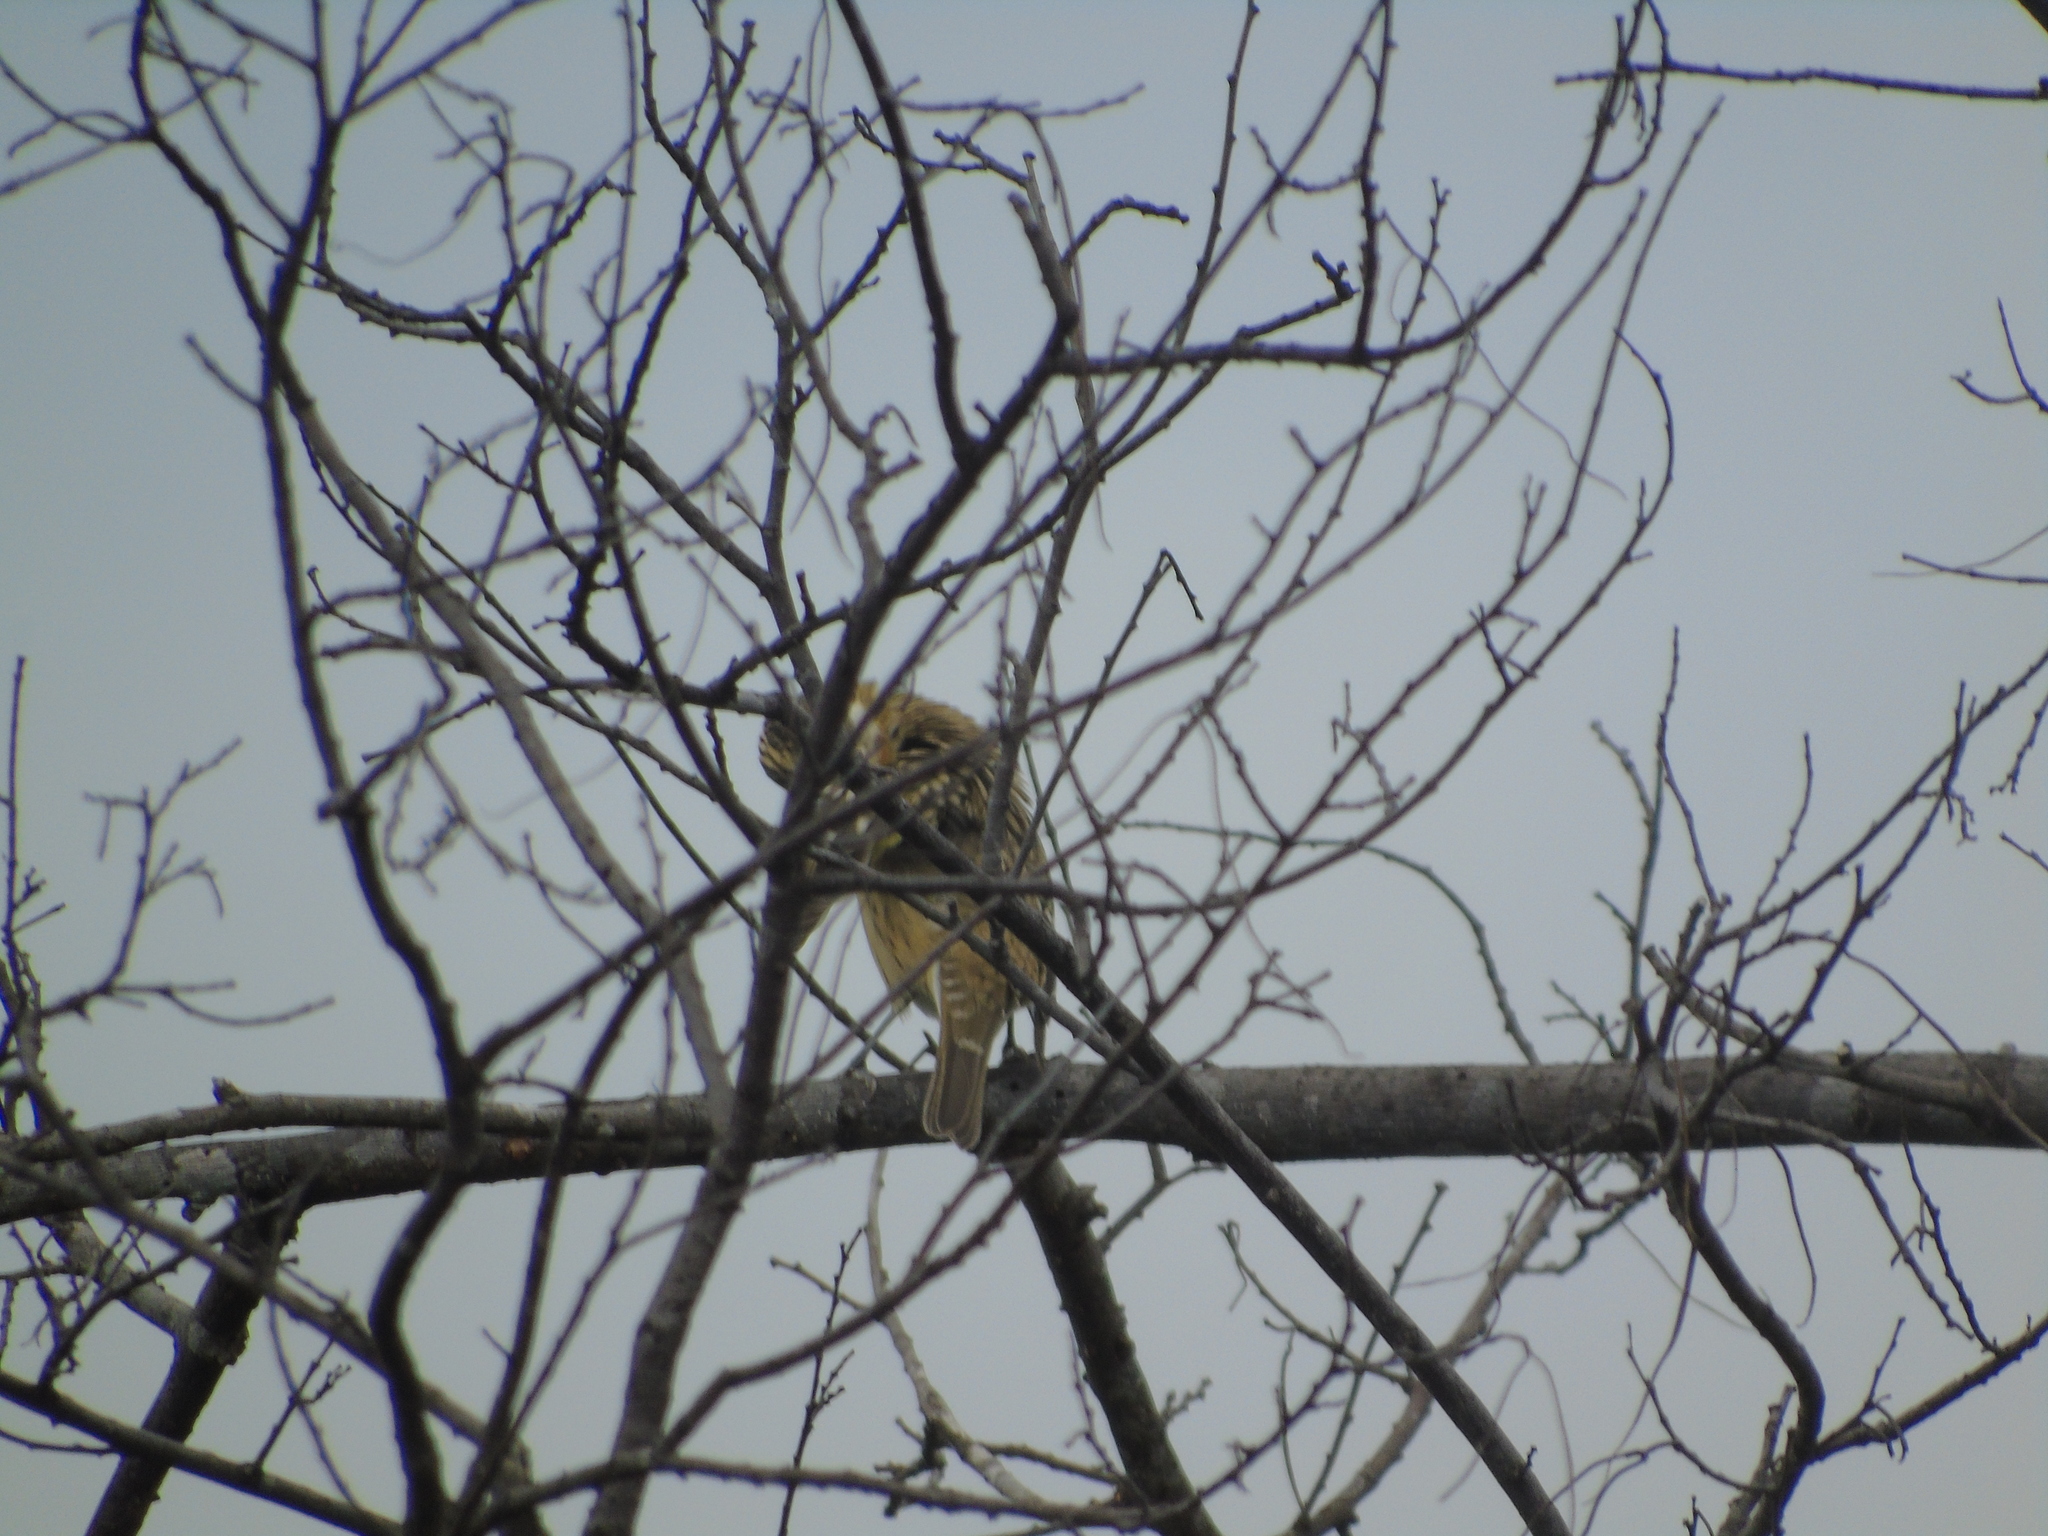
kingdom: Animalia
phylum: Chordata
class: Aves
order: Passeriformes
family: Cardinalidae
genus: Pheucticus
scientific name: Pheucticus melanocephalus
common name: Black-headed grosbeak
